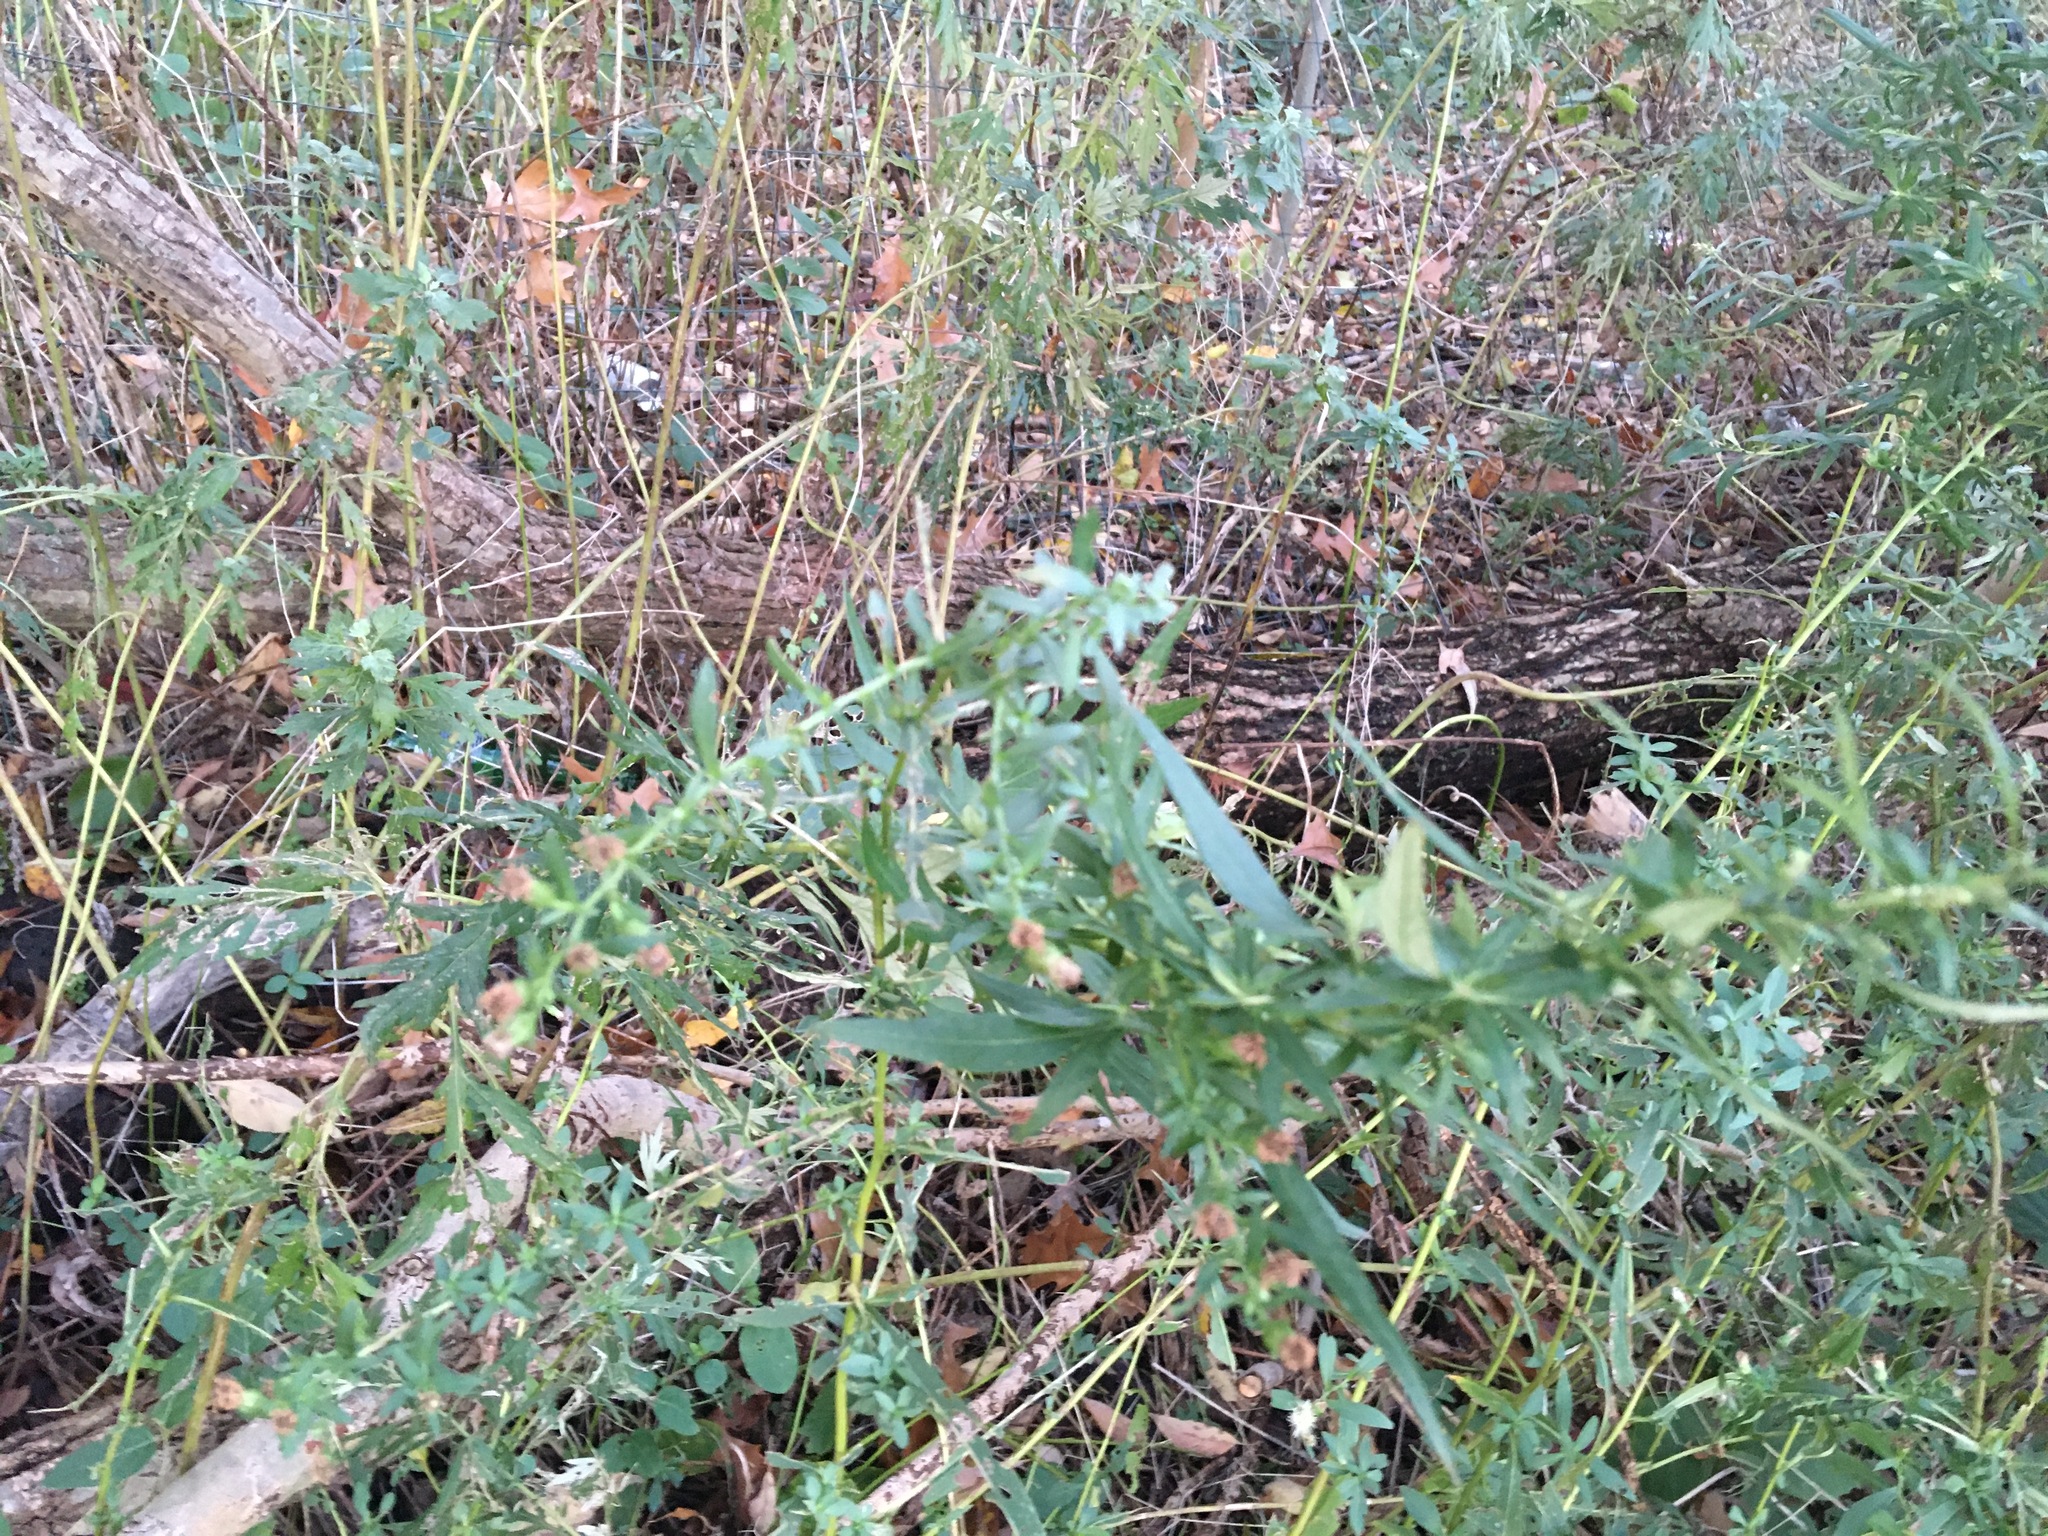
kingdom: Plantae
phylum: Tracheophyta
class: Magnoliopsida
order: Asterales
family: Asteraceae
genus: Artemisia
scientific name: Artemisia vulgaris
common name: Mugwort
